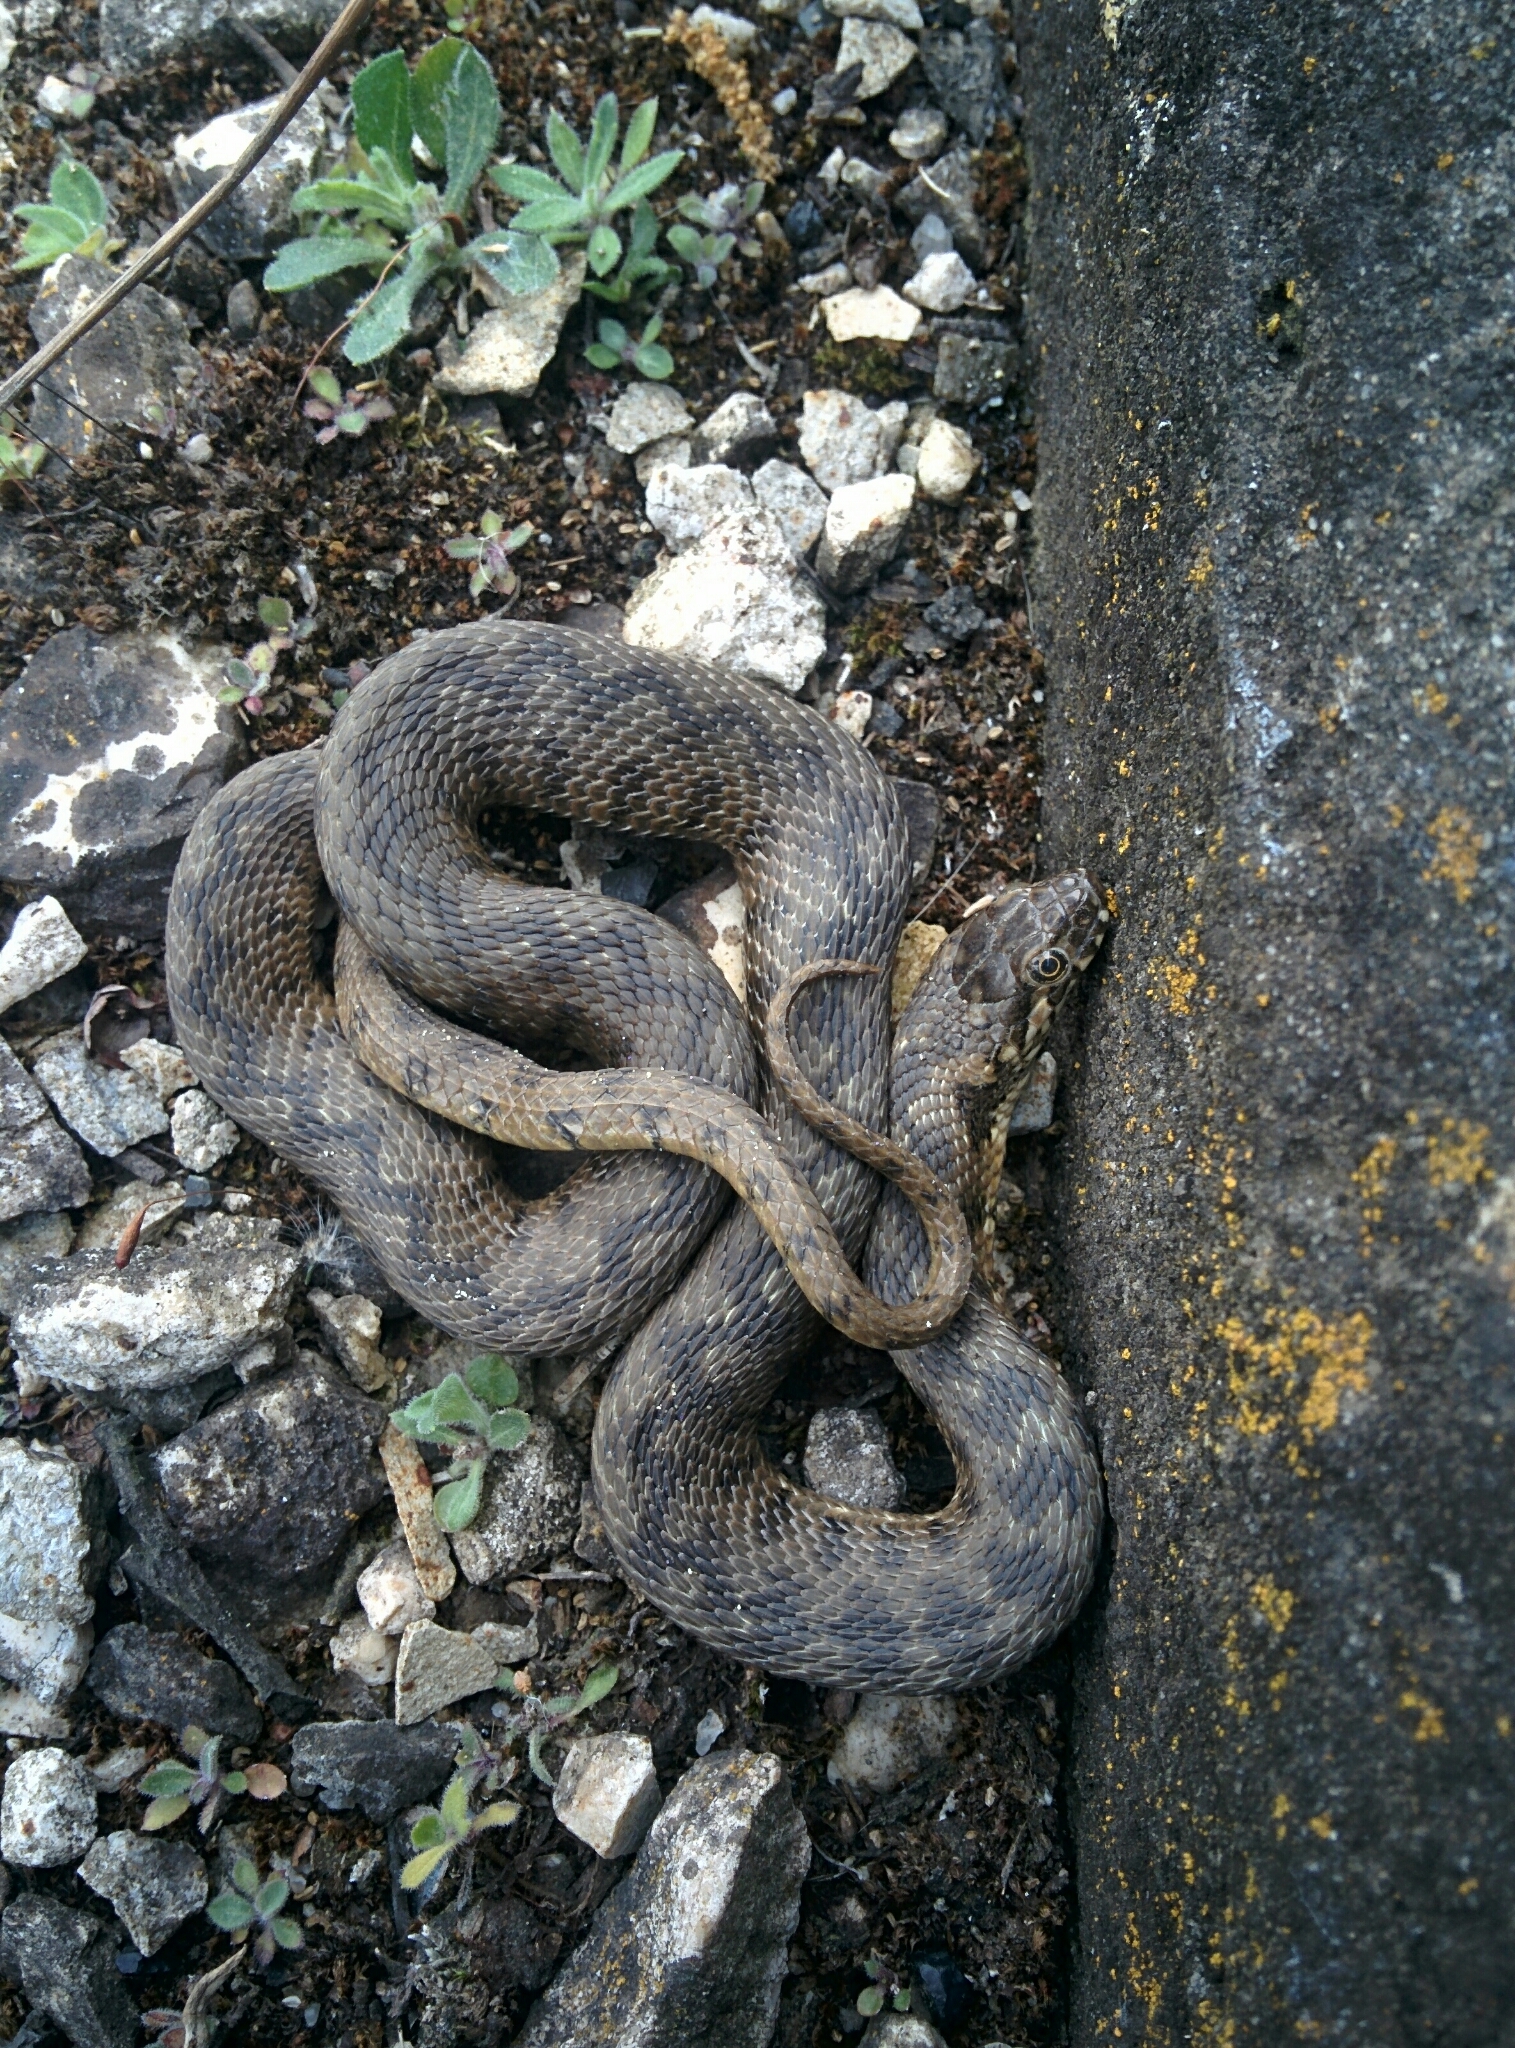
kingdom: Animalia
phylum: Chordata
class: Squamata
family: Colubridae
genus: Natrix
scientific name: Natrix maura
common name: Viperine water snake
